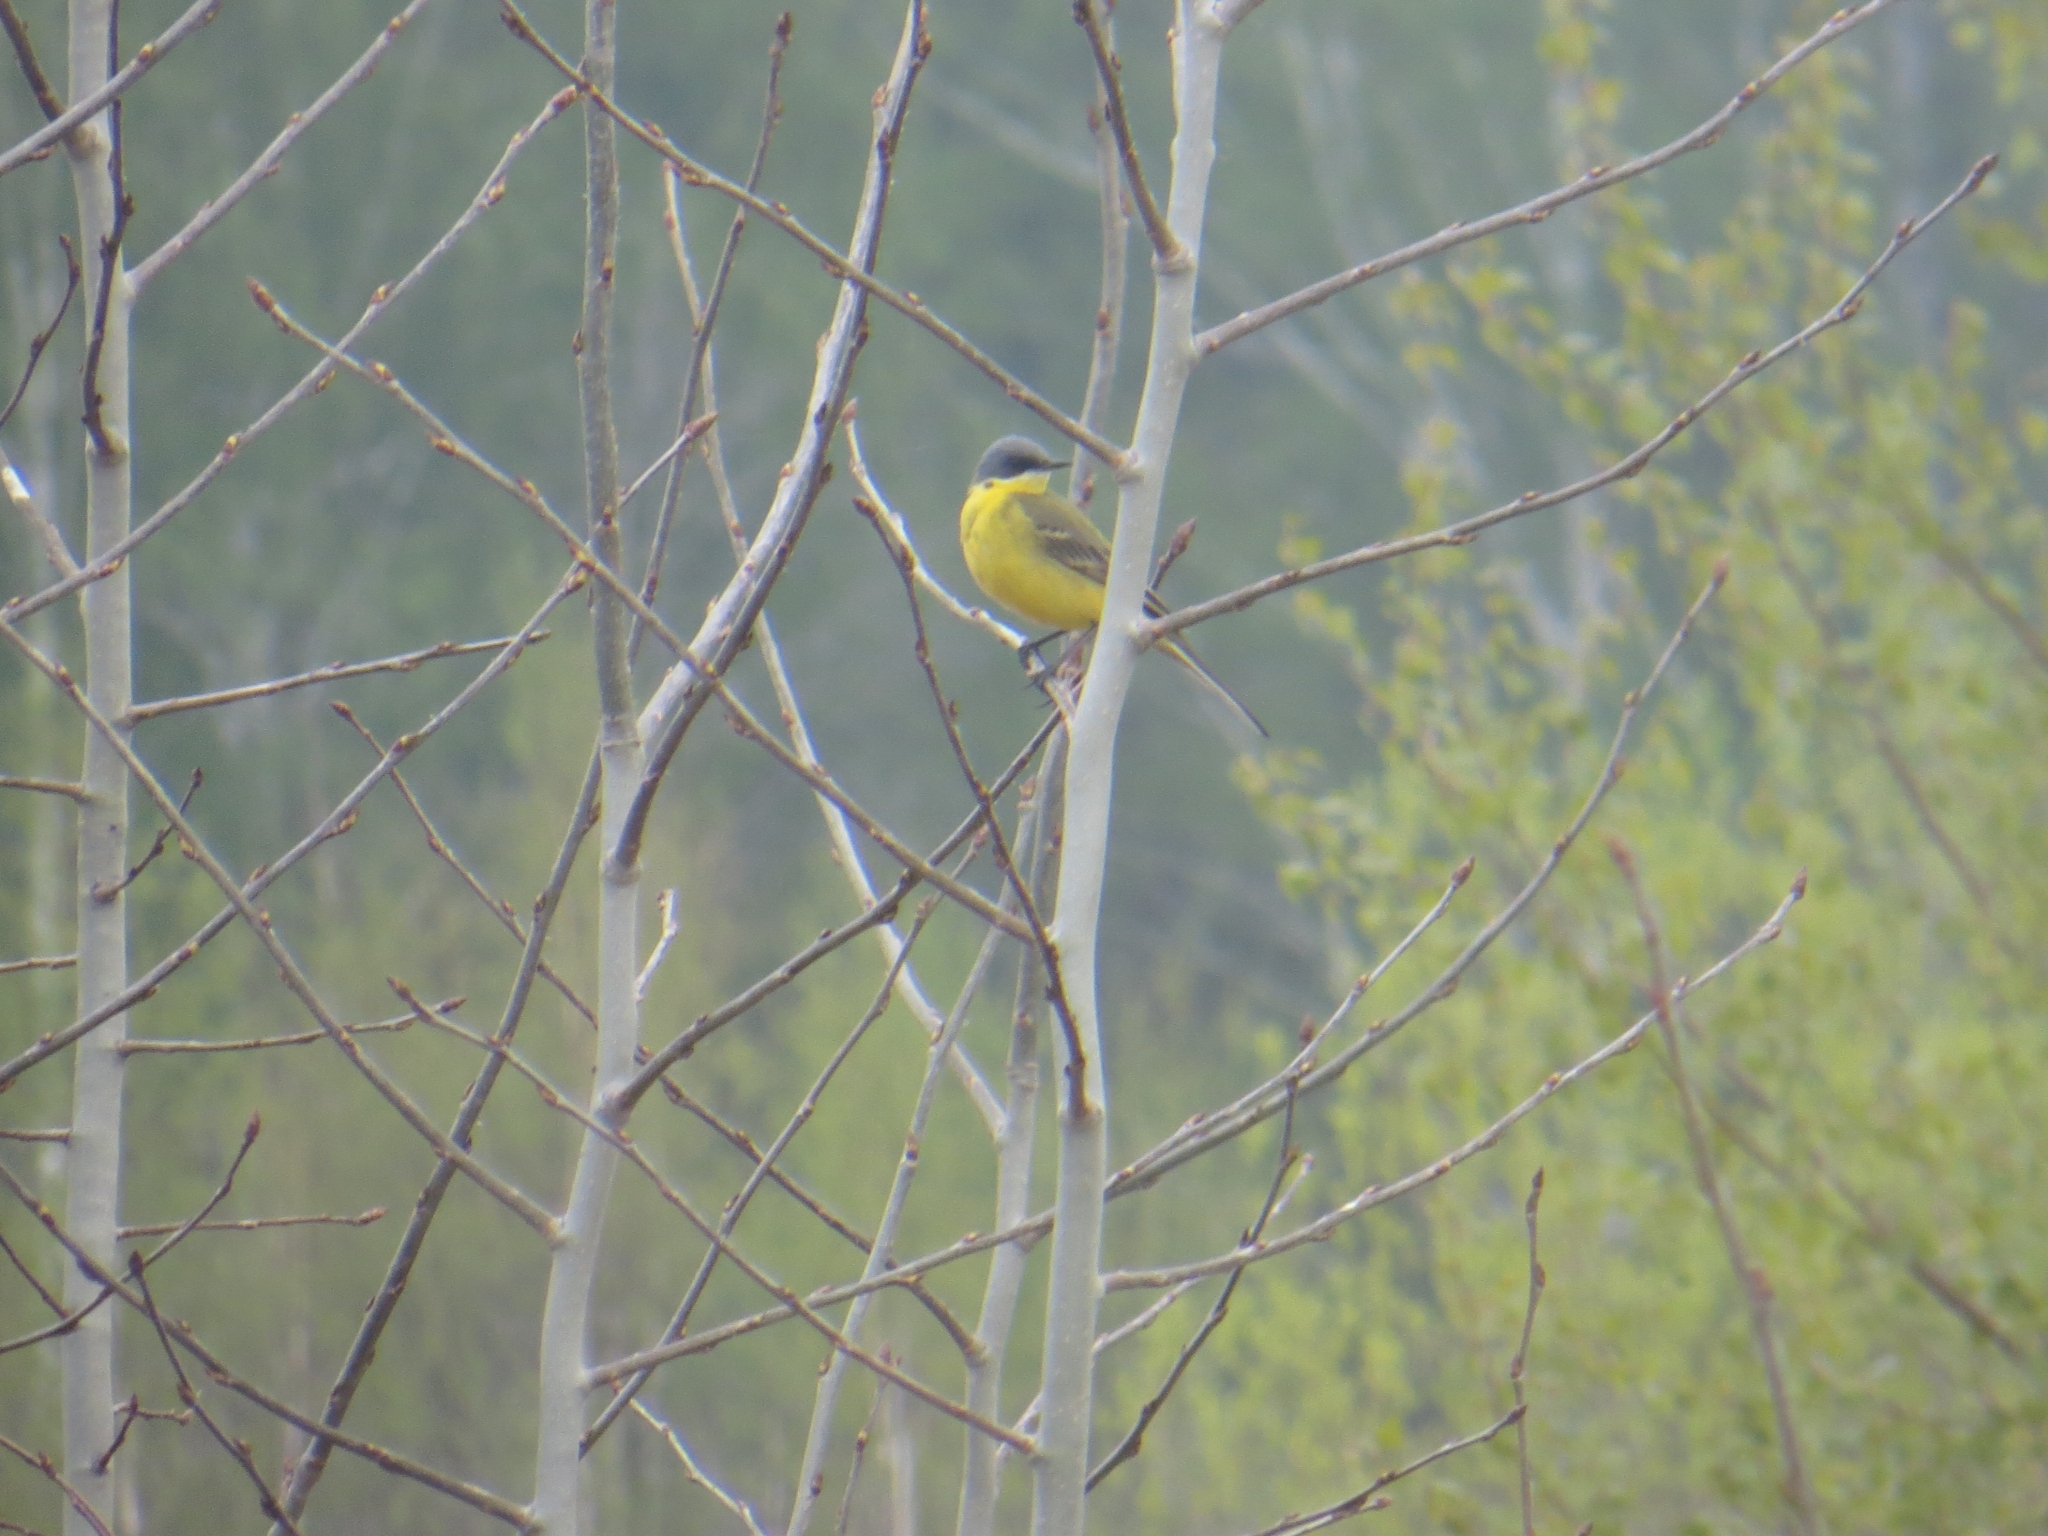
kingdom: Animalia
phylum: Chordata
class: Aves
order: Passeriformes
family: Motacillidae
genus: Motacilla
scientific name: Motacilla flava
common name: Western yellow wagtail
